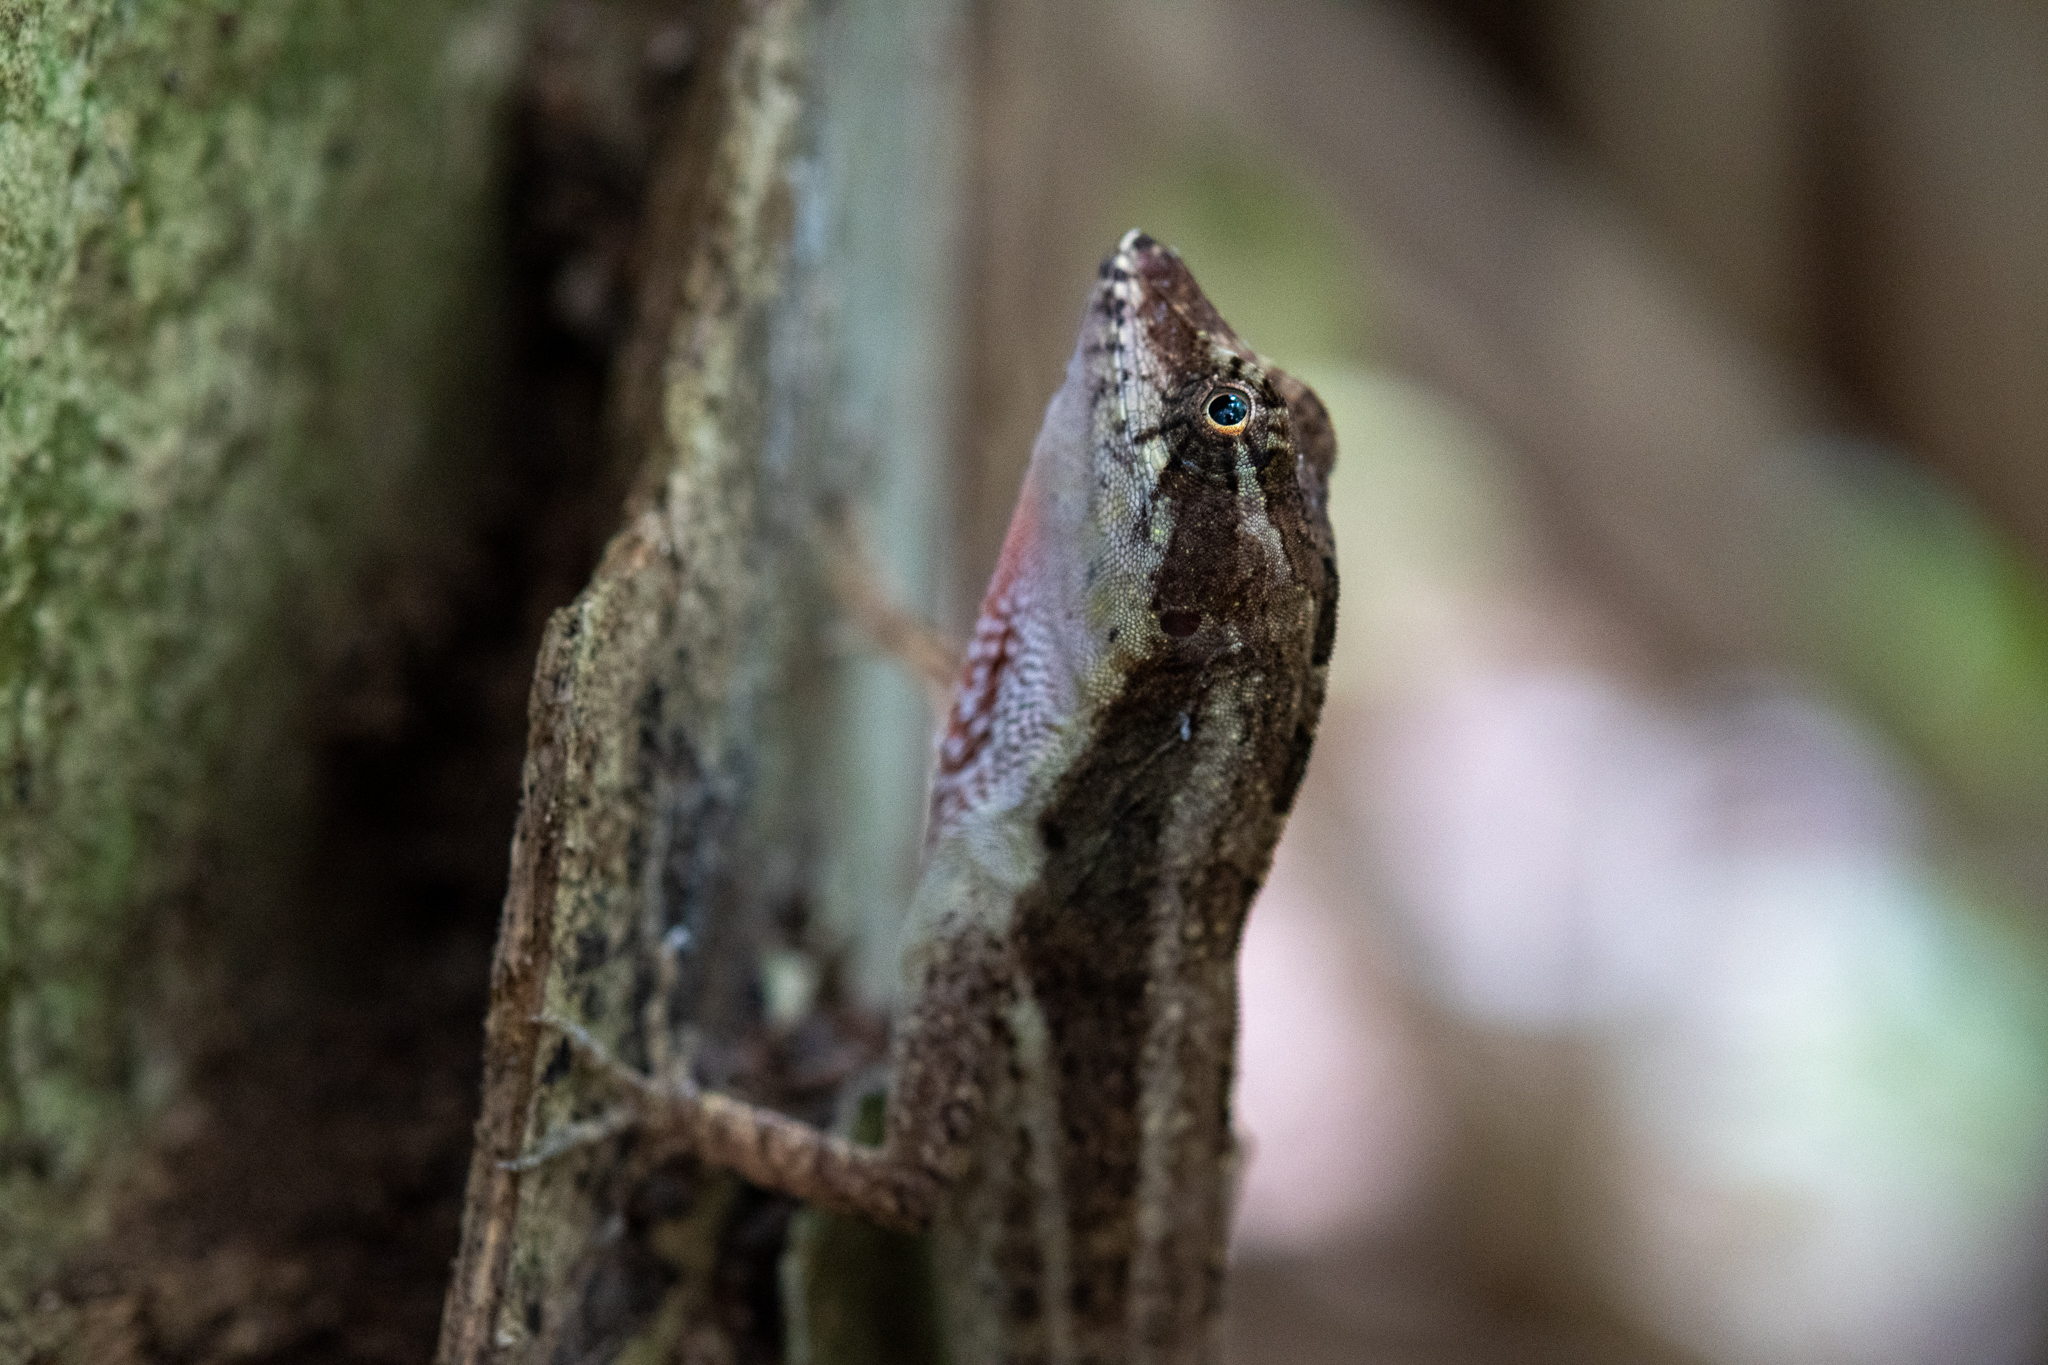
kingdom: Animalia
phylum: Chordata
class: Squamata
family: Dactyloidae
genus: Anolis
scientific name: Anolis bicaorum
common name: Bay islands anole
